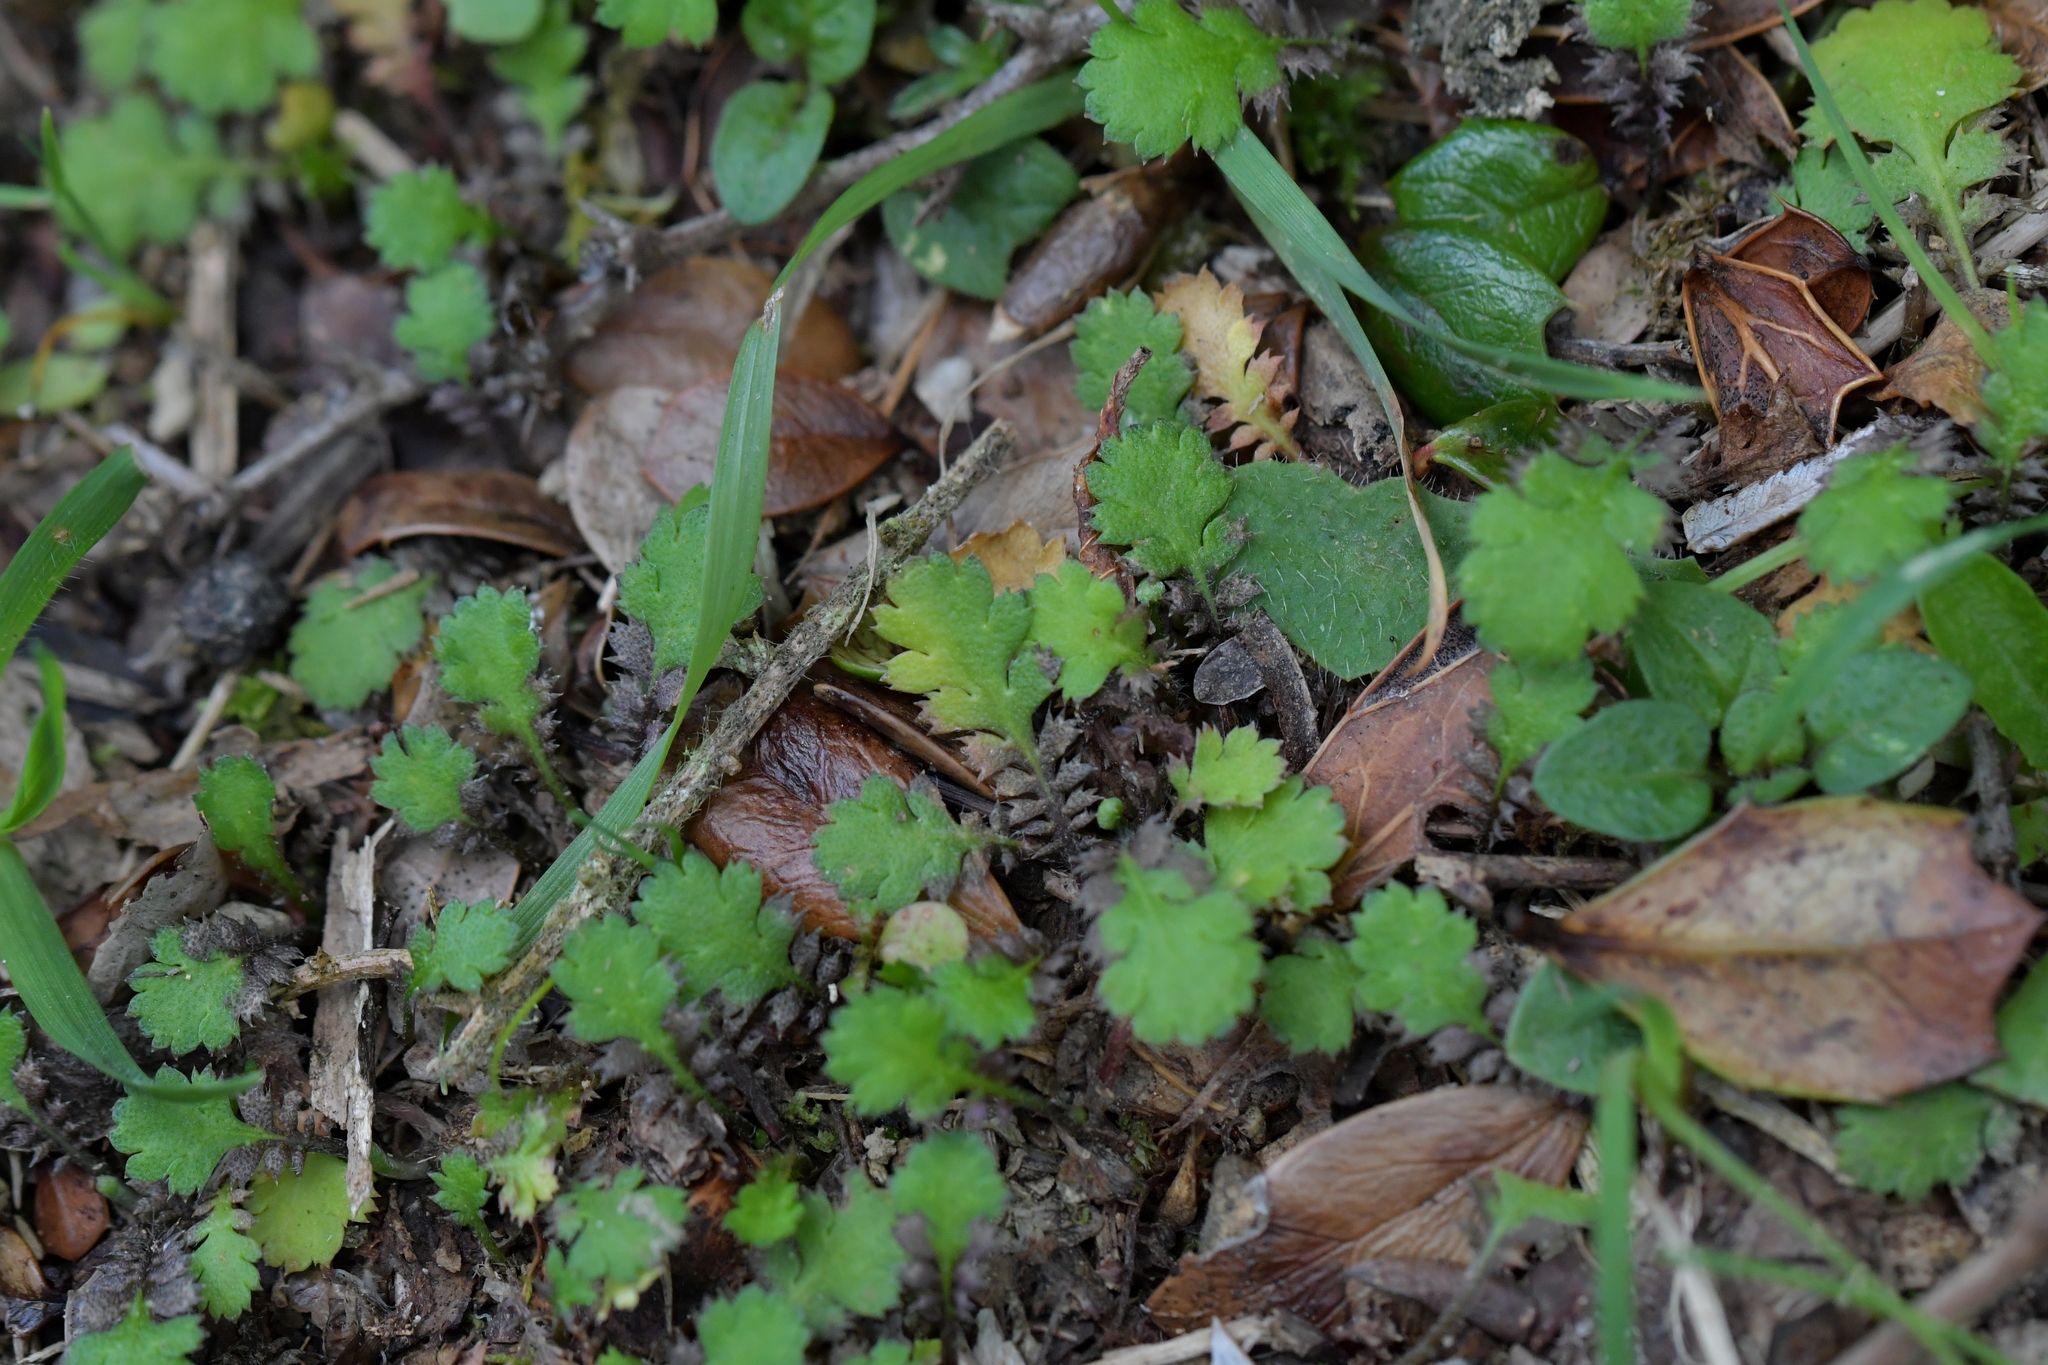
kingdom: Plantae
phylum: Tracheophyta
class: Magnoliopsida
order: Asterales
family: Asteraceae
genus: Leptinella
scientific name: Leptinella squalida
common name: New zealand brass-buttons
